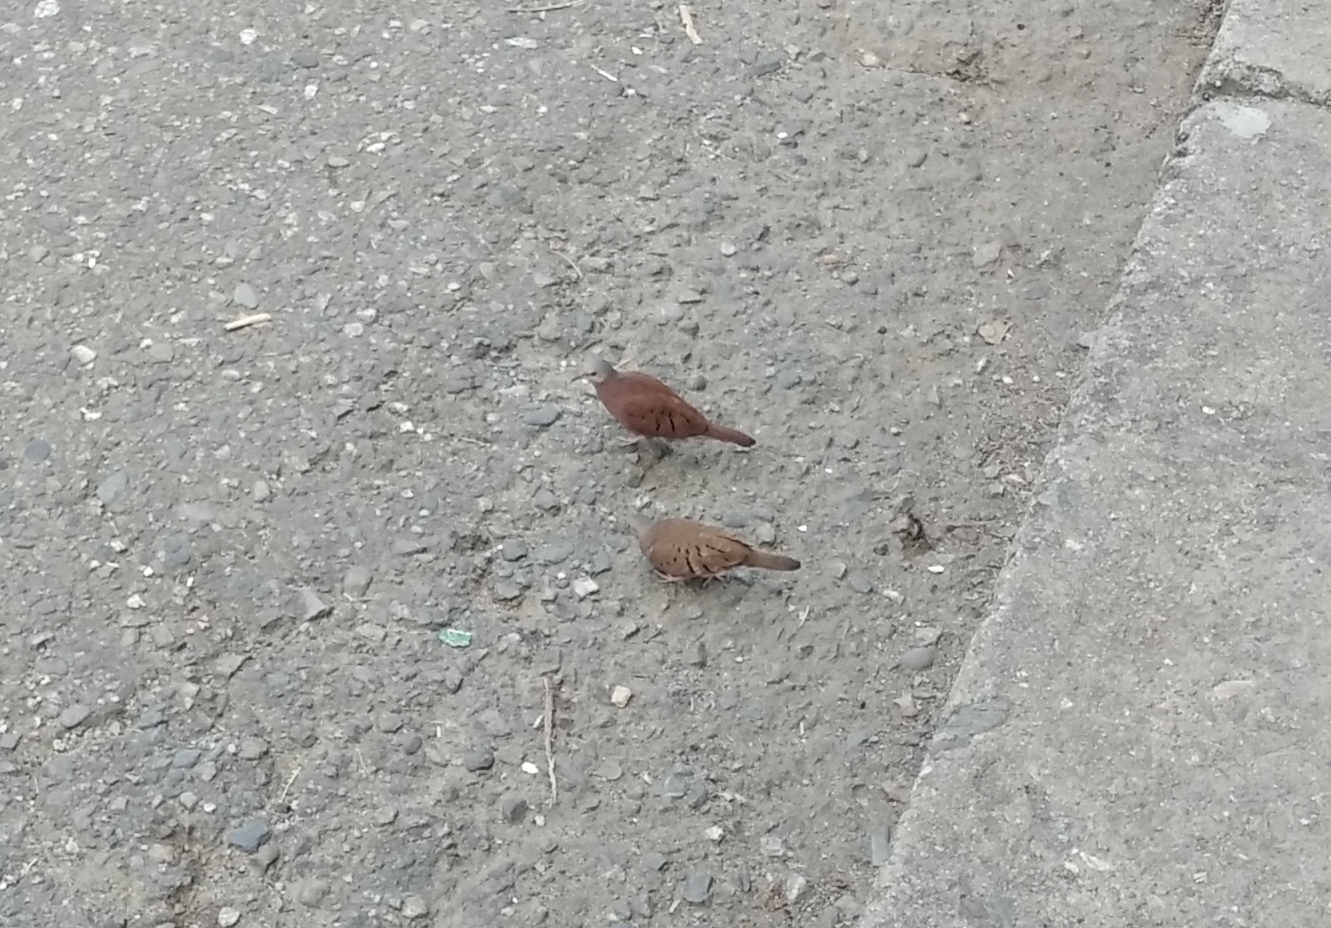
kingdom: Animalia
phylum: Chordata
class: Aves
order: Columbiformes
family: Columbidae
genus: Columbina
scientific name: Columbina talpacoti
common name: Ruddy ground dove
